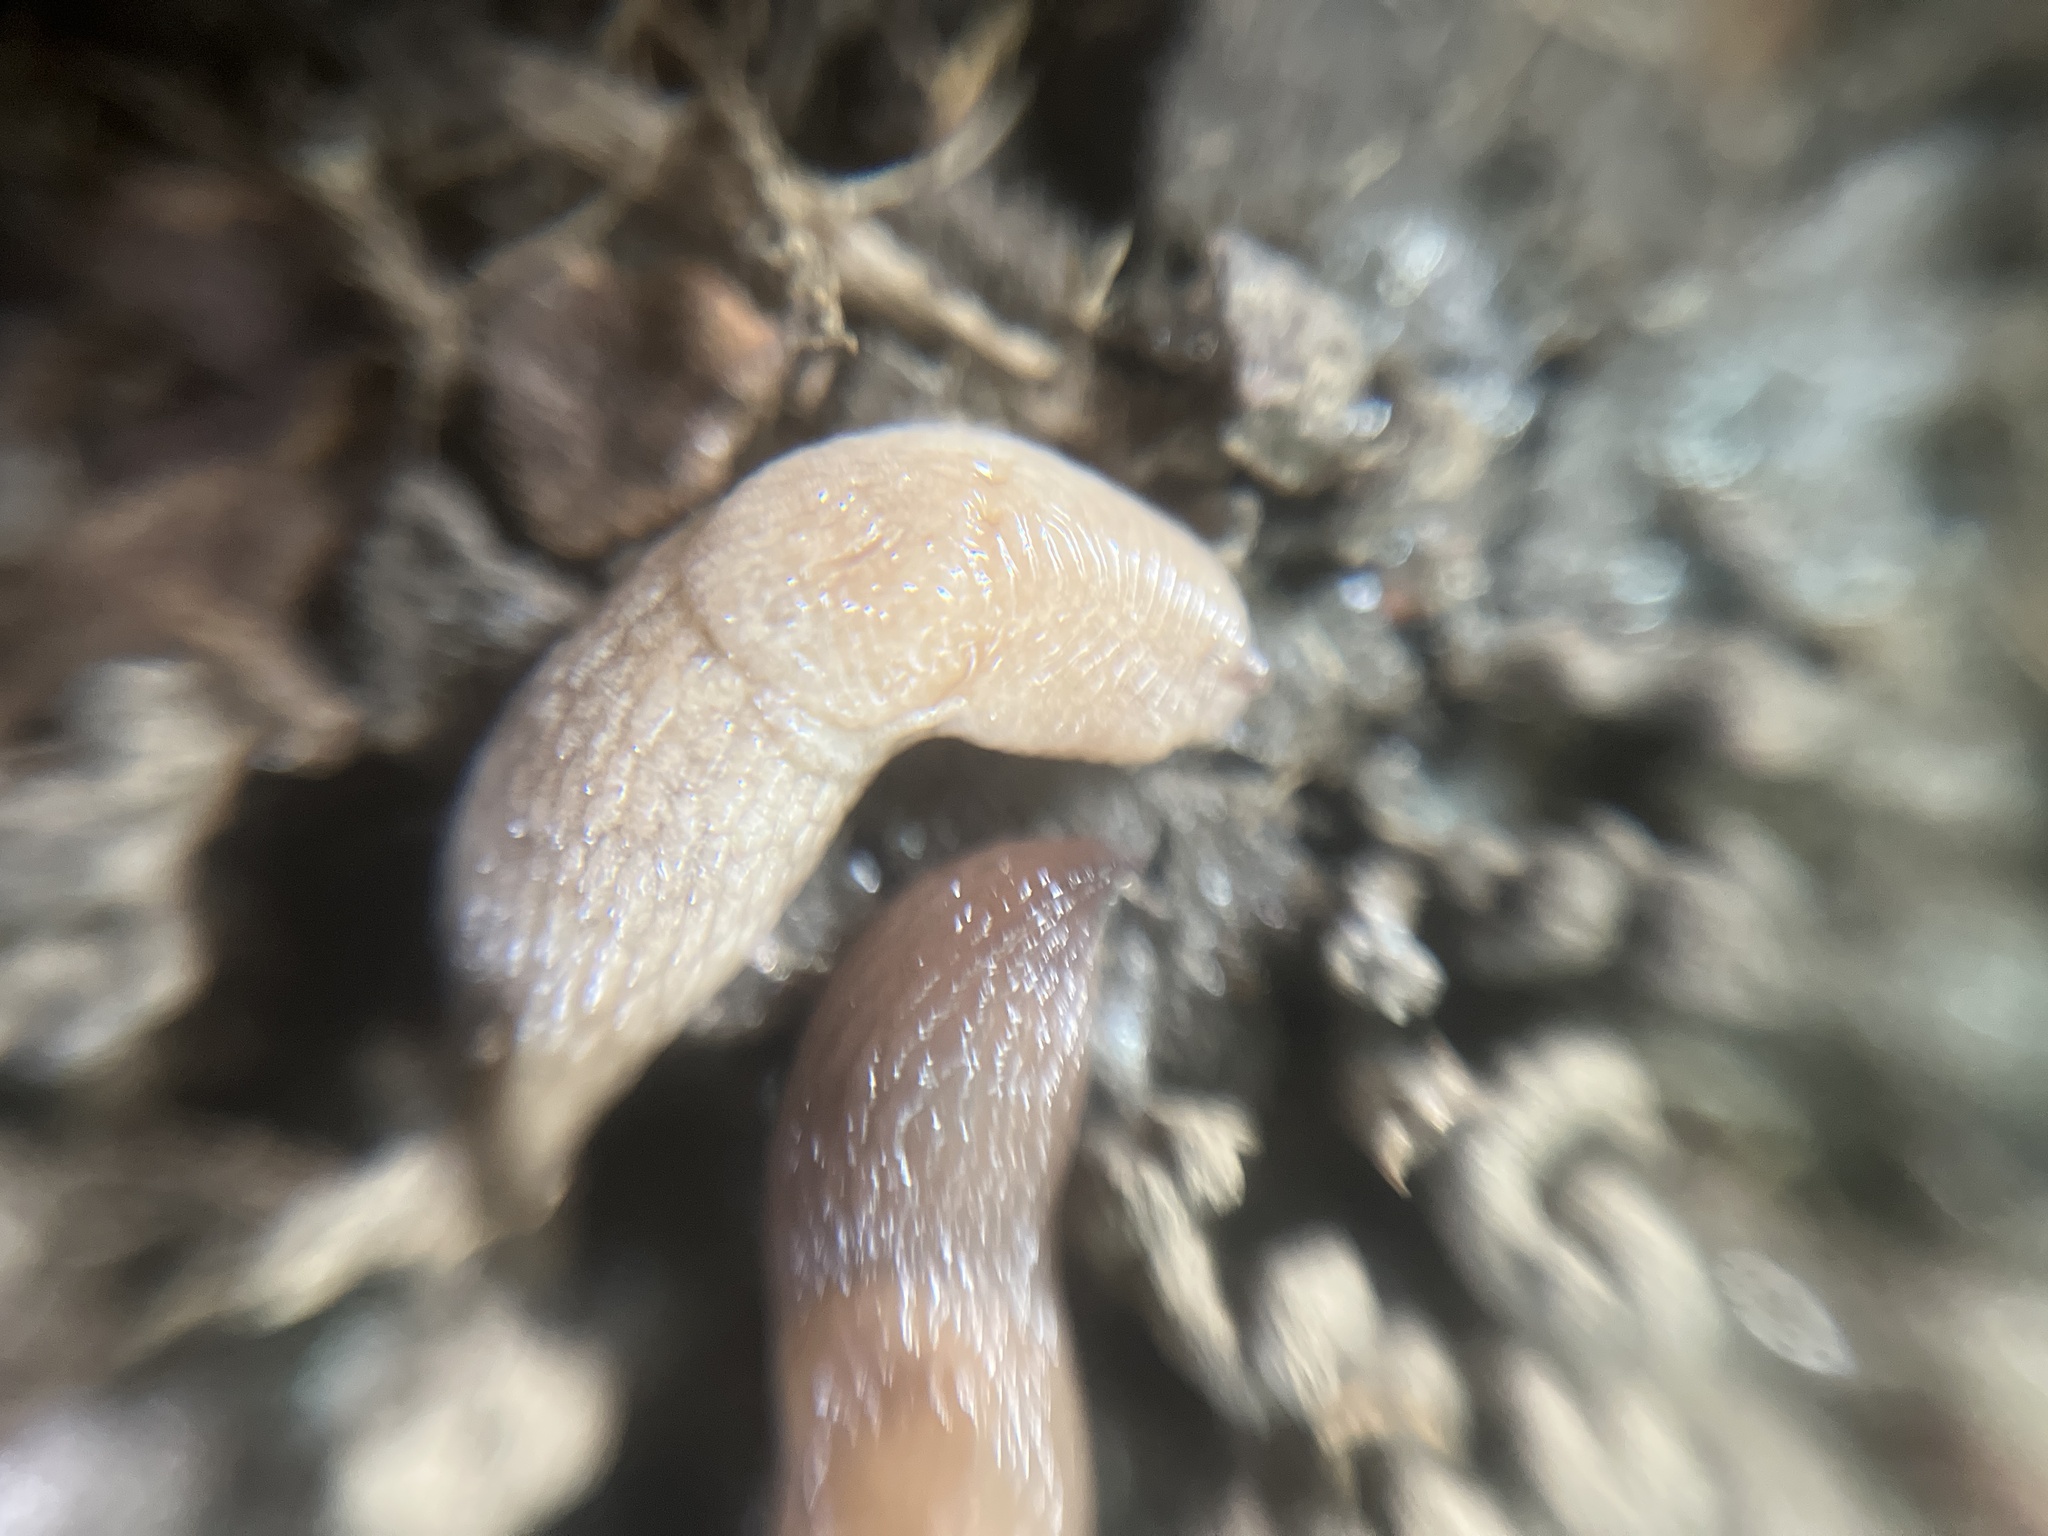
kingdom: Animalia
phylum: Mollusca
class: Gastropoda
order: Stylommatophora
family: Agriolimacidae
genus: Deroceras
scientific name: Deroceras reticulatum
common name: Gray field slug
